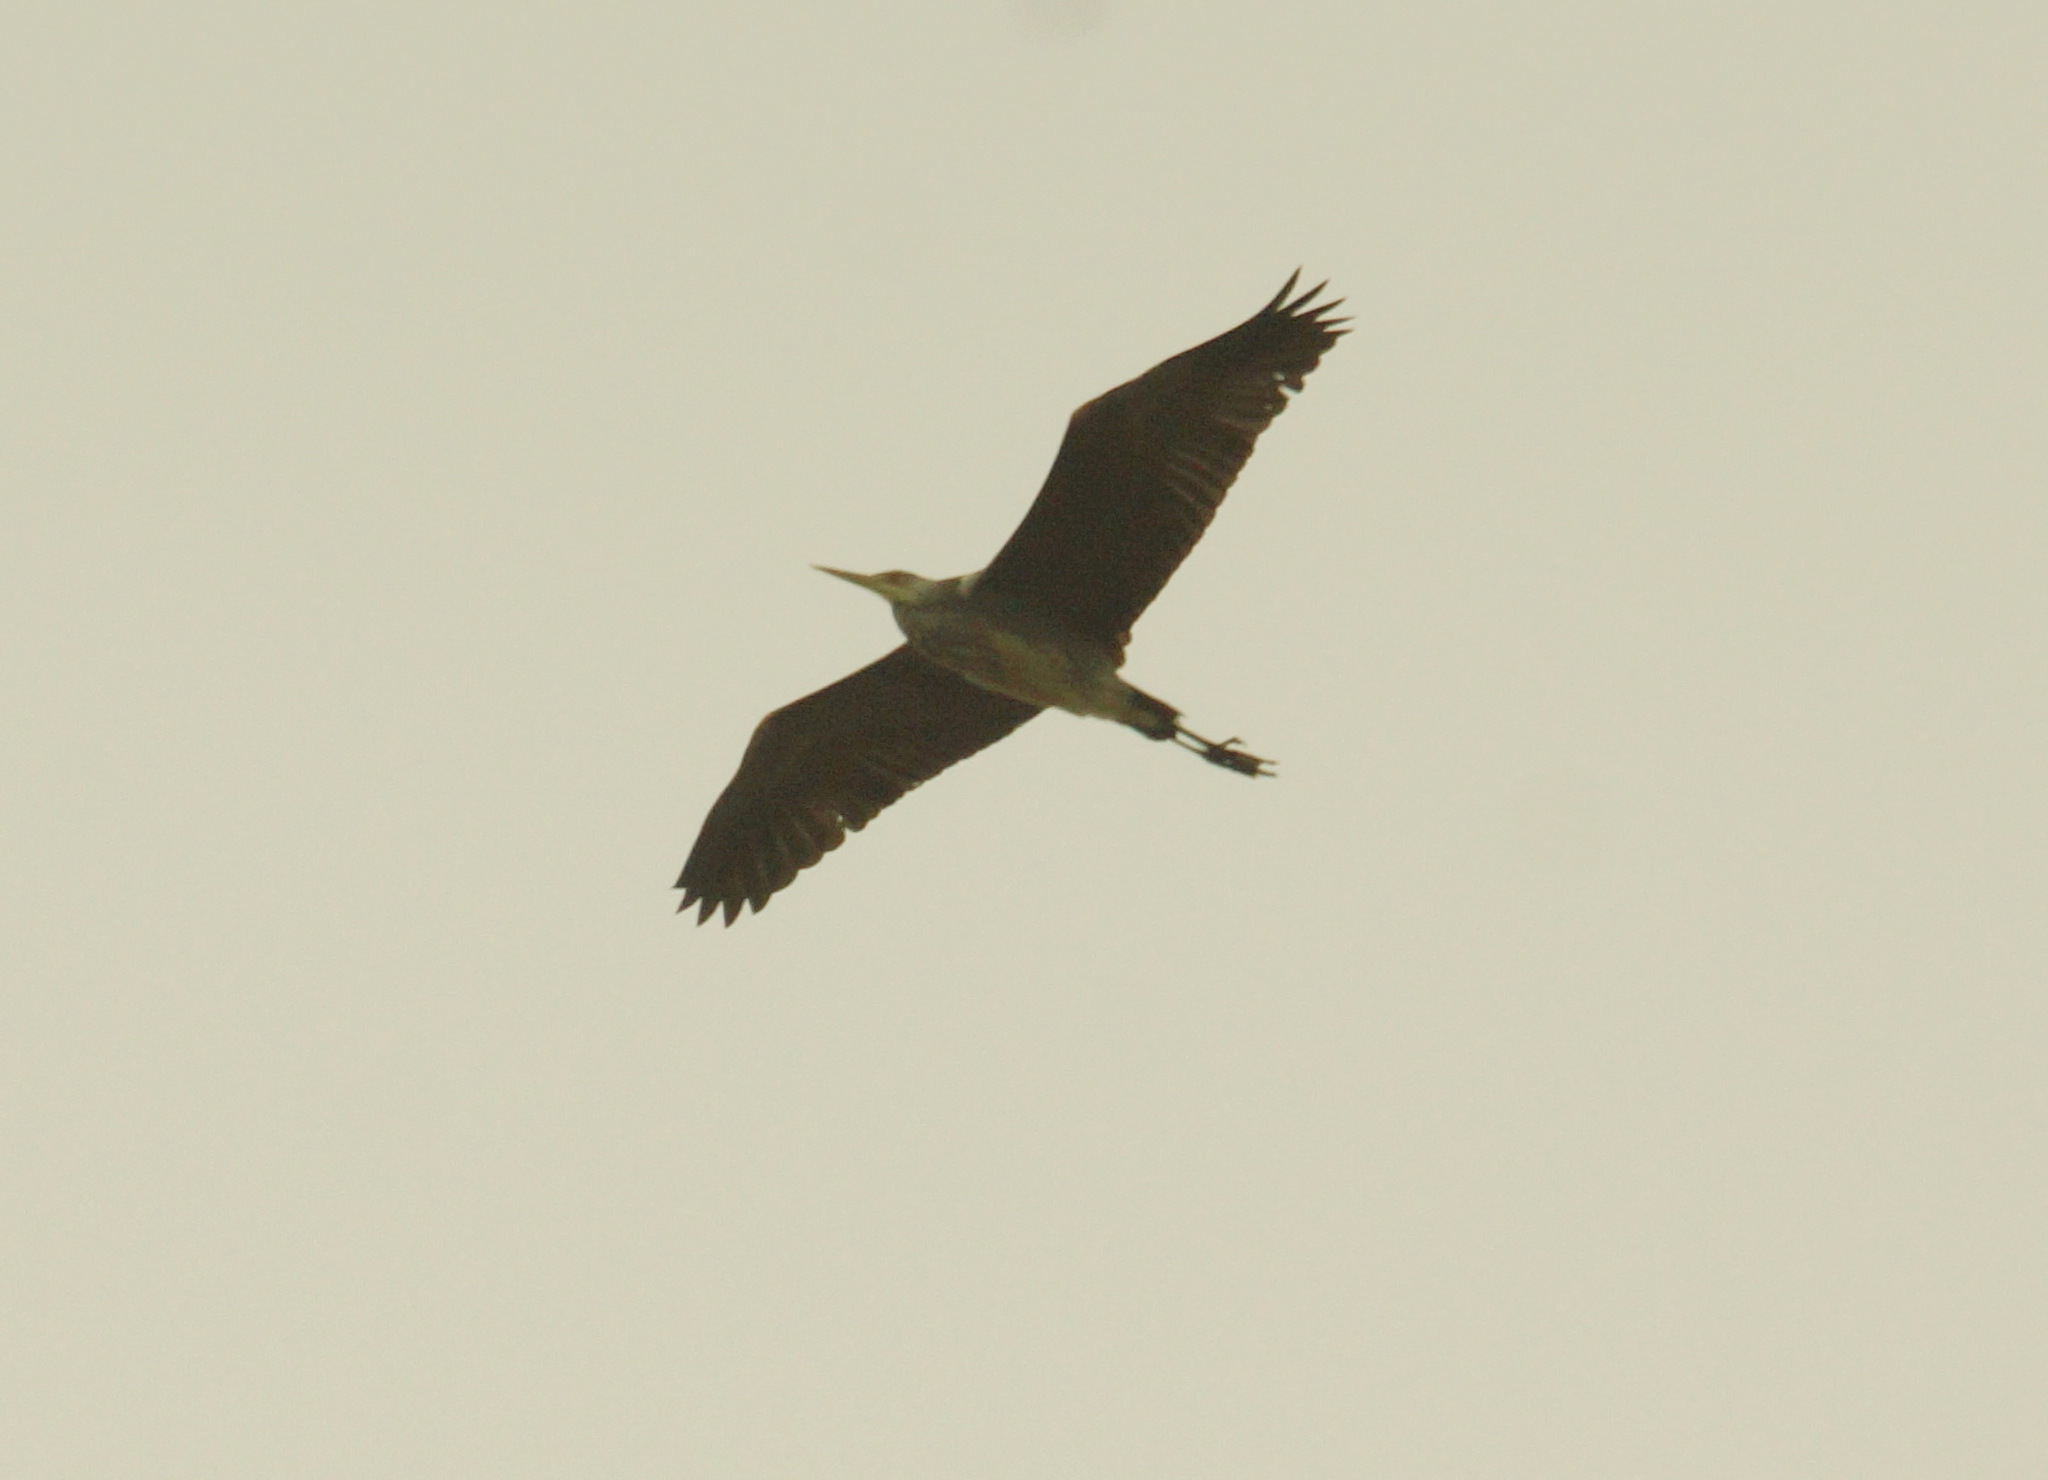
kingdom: Animalia
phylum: Chordata
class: Aves
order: Pelecaniformes
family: Ardeidae
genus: Ardea
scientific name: Ardea cinerea
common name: Grey heron
